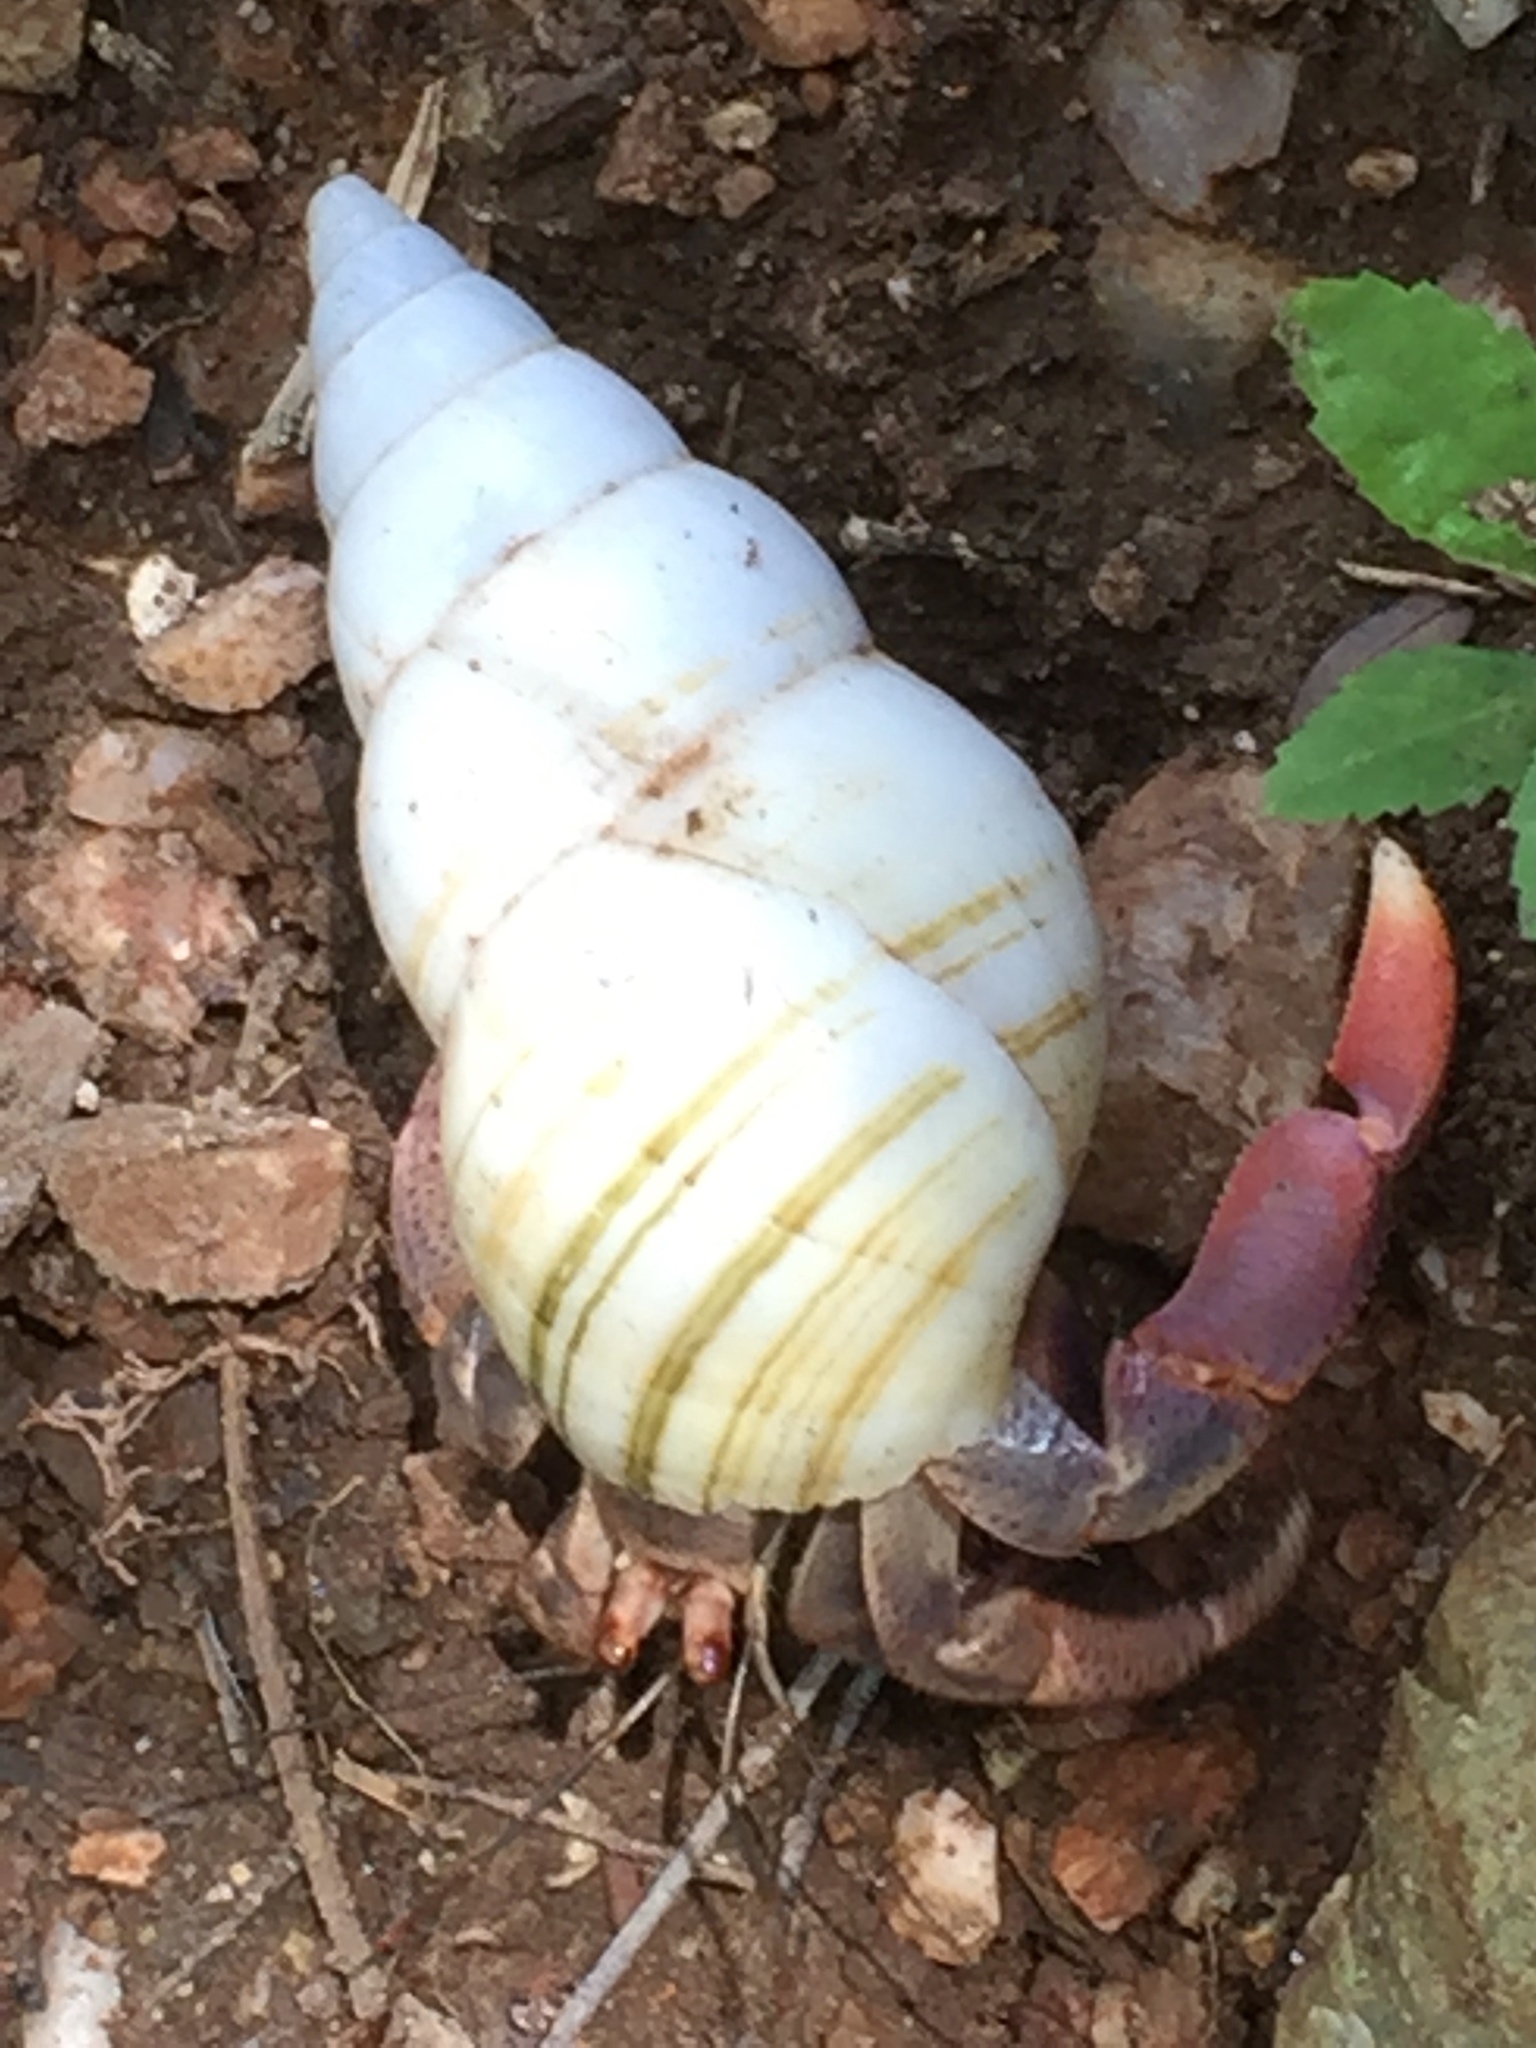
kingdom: Animalia
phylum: Arthropoda
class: Malacostraca
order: Decapoda
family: Coenobitidae
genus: Coenobita
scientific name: Coenobita clypeatus
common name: Caribbean hermit crab
